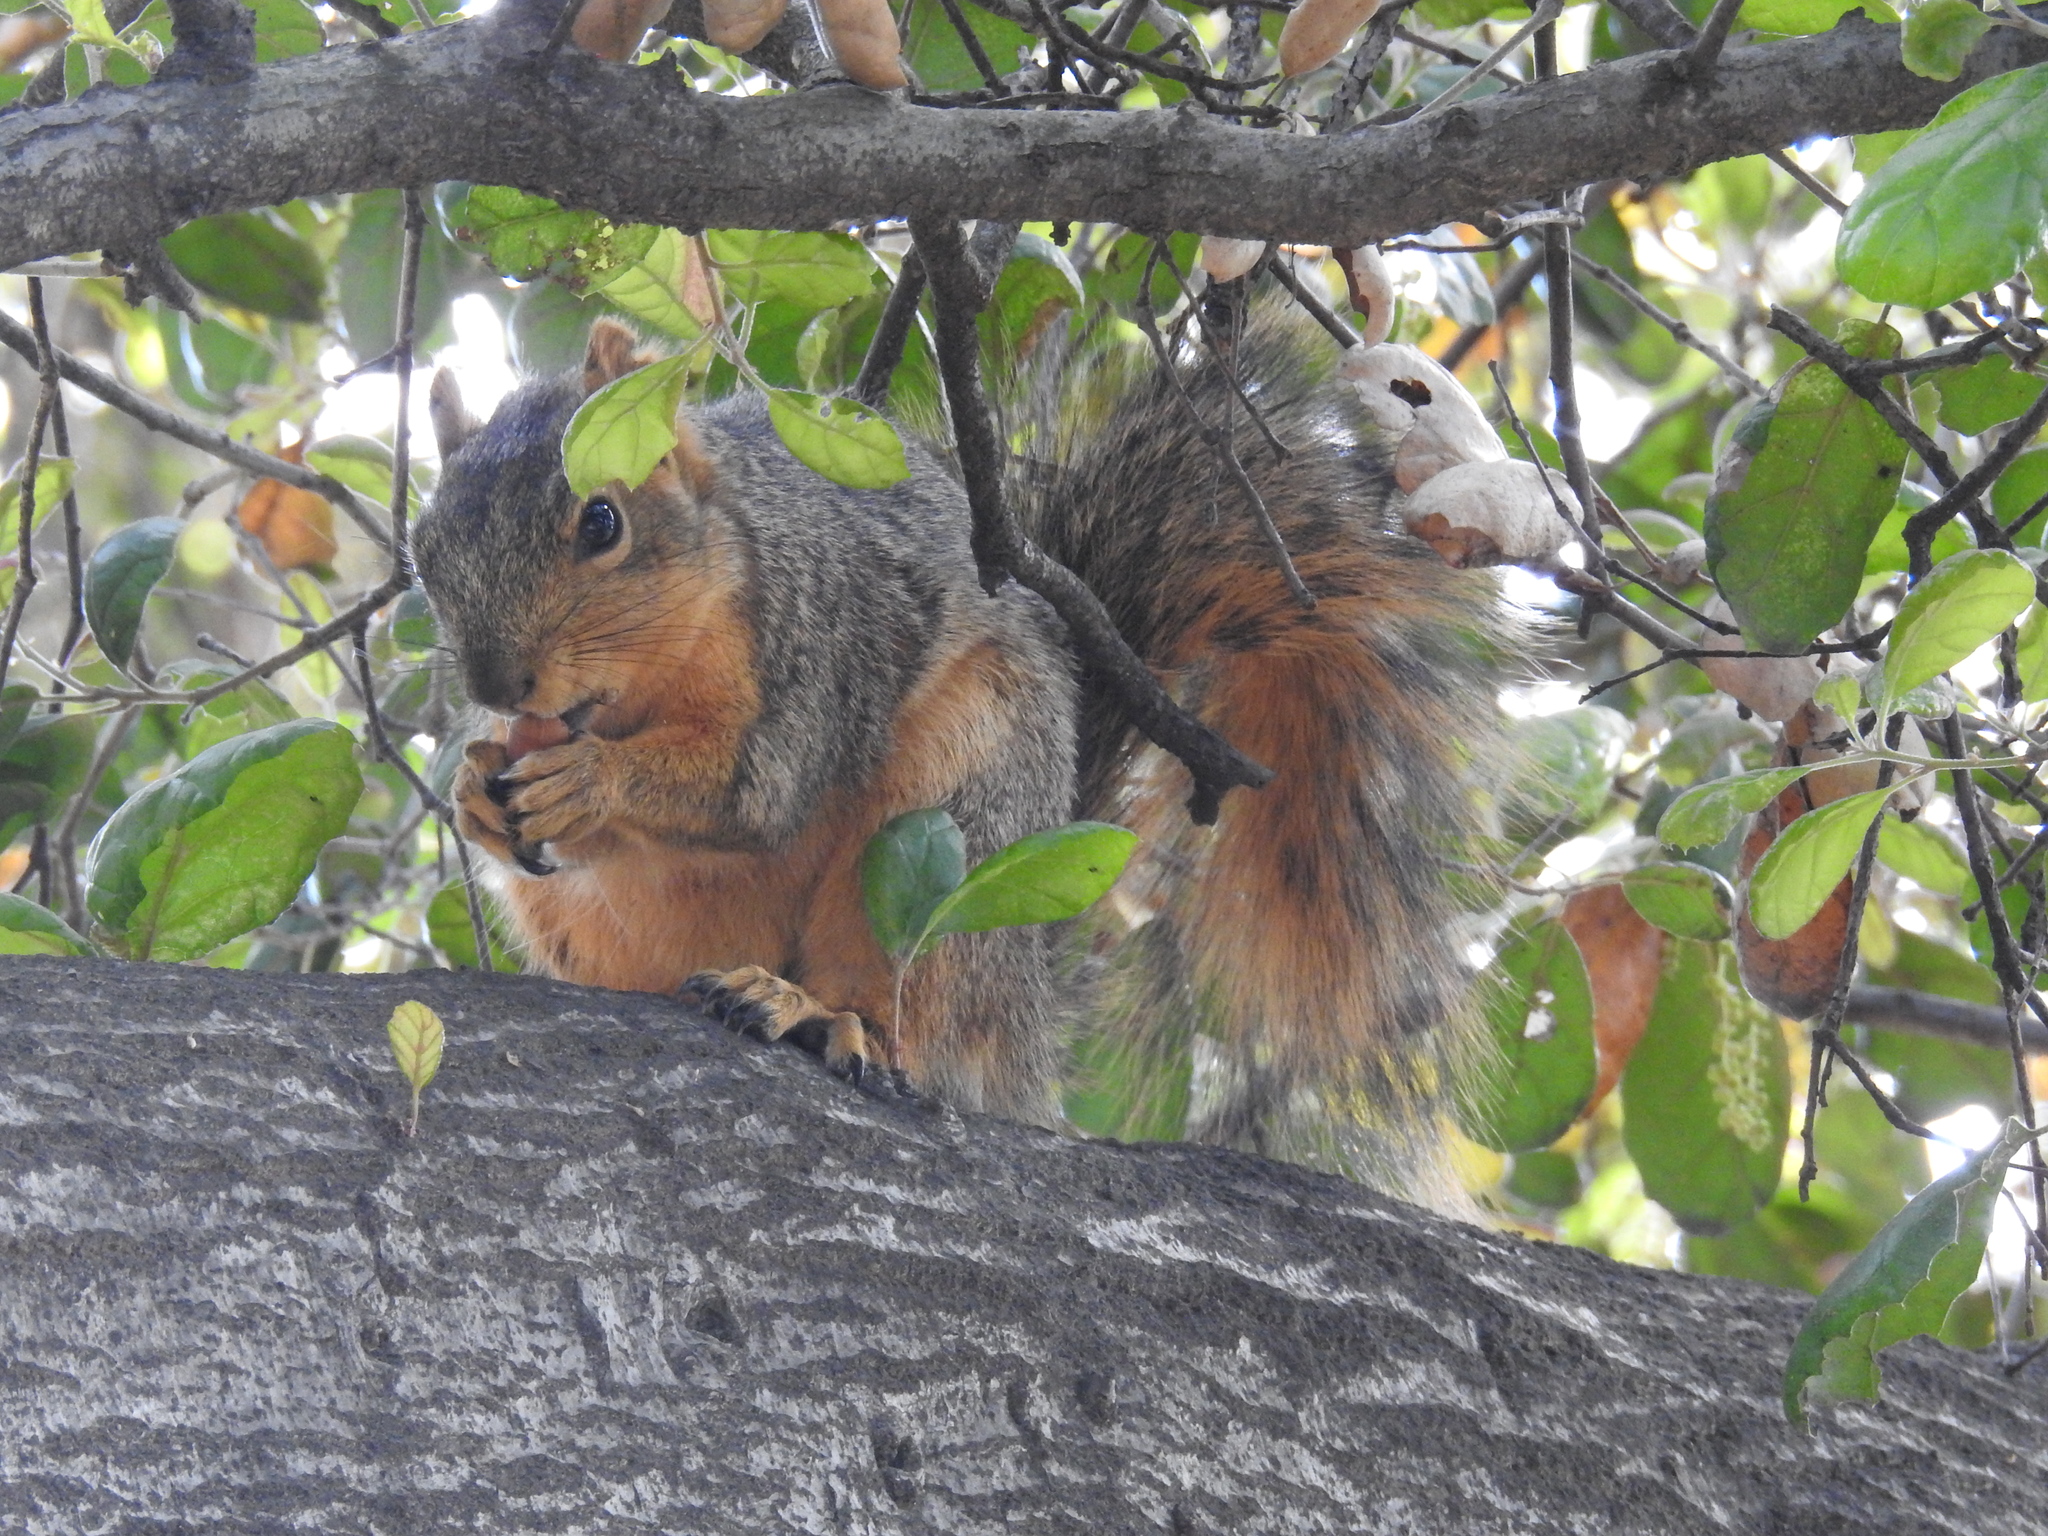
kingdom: Animalia
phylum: Chordata
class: Mammalia
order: Rodentia
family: Sciuridae
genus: Sciurus
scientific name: Sciurus niger
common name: Fox squirrel
